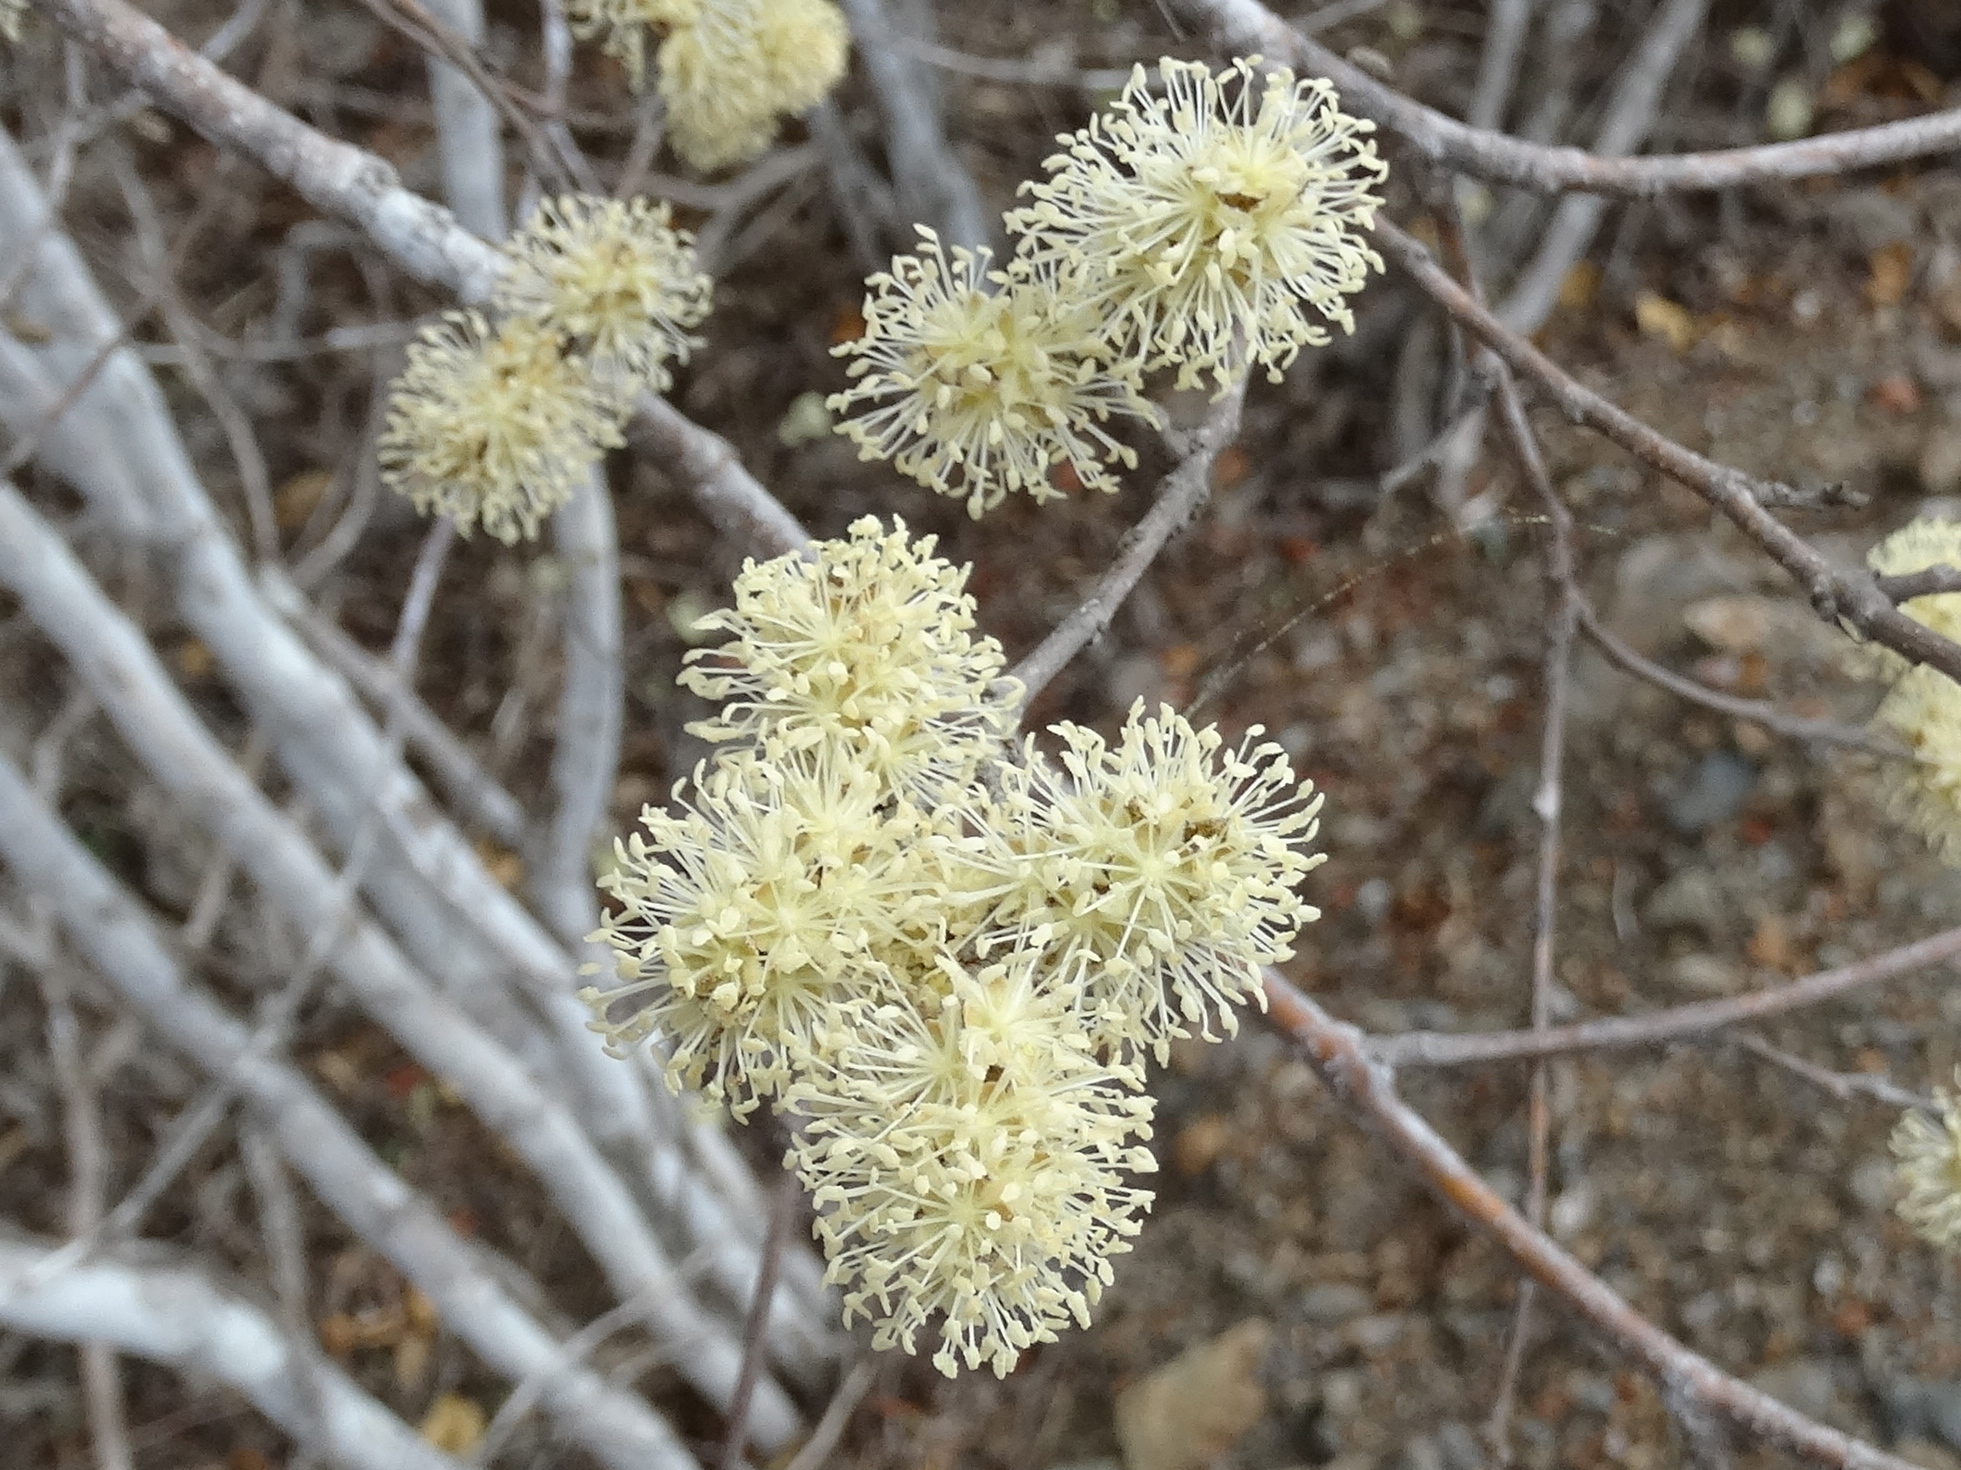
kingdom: Plantae
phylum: Tracheophyta
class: Magnoliopsida
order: Malpighiales
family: Euphorbiaceae
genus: Croton
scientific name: Croton lindquistii
